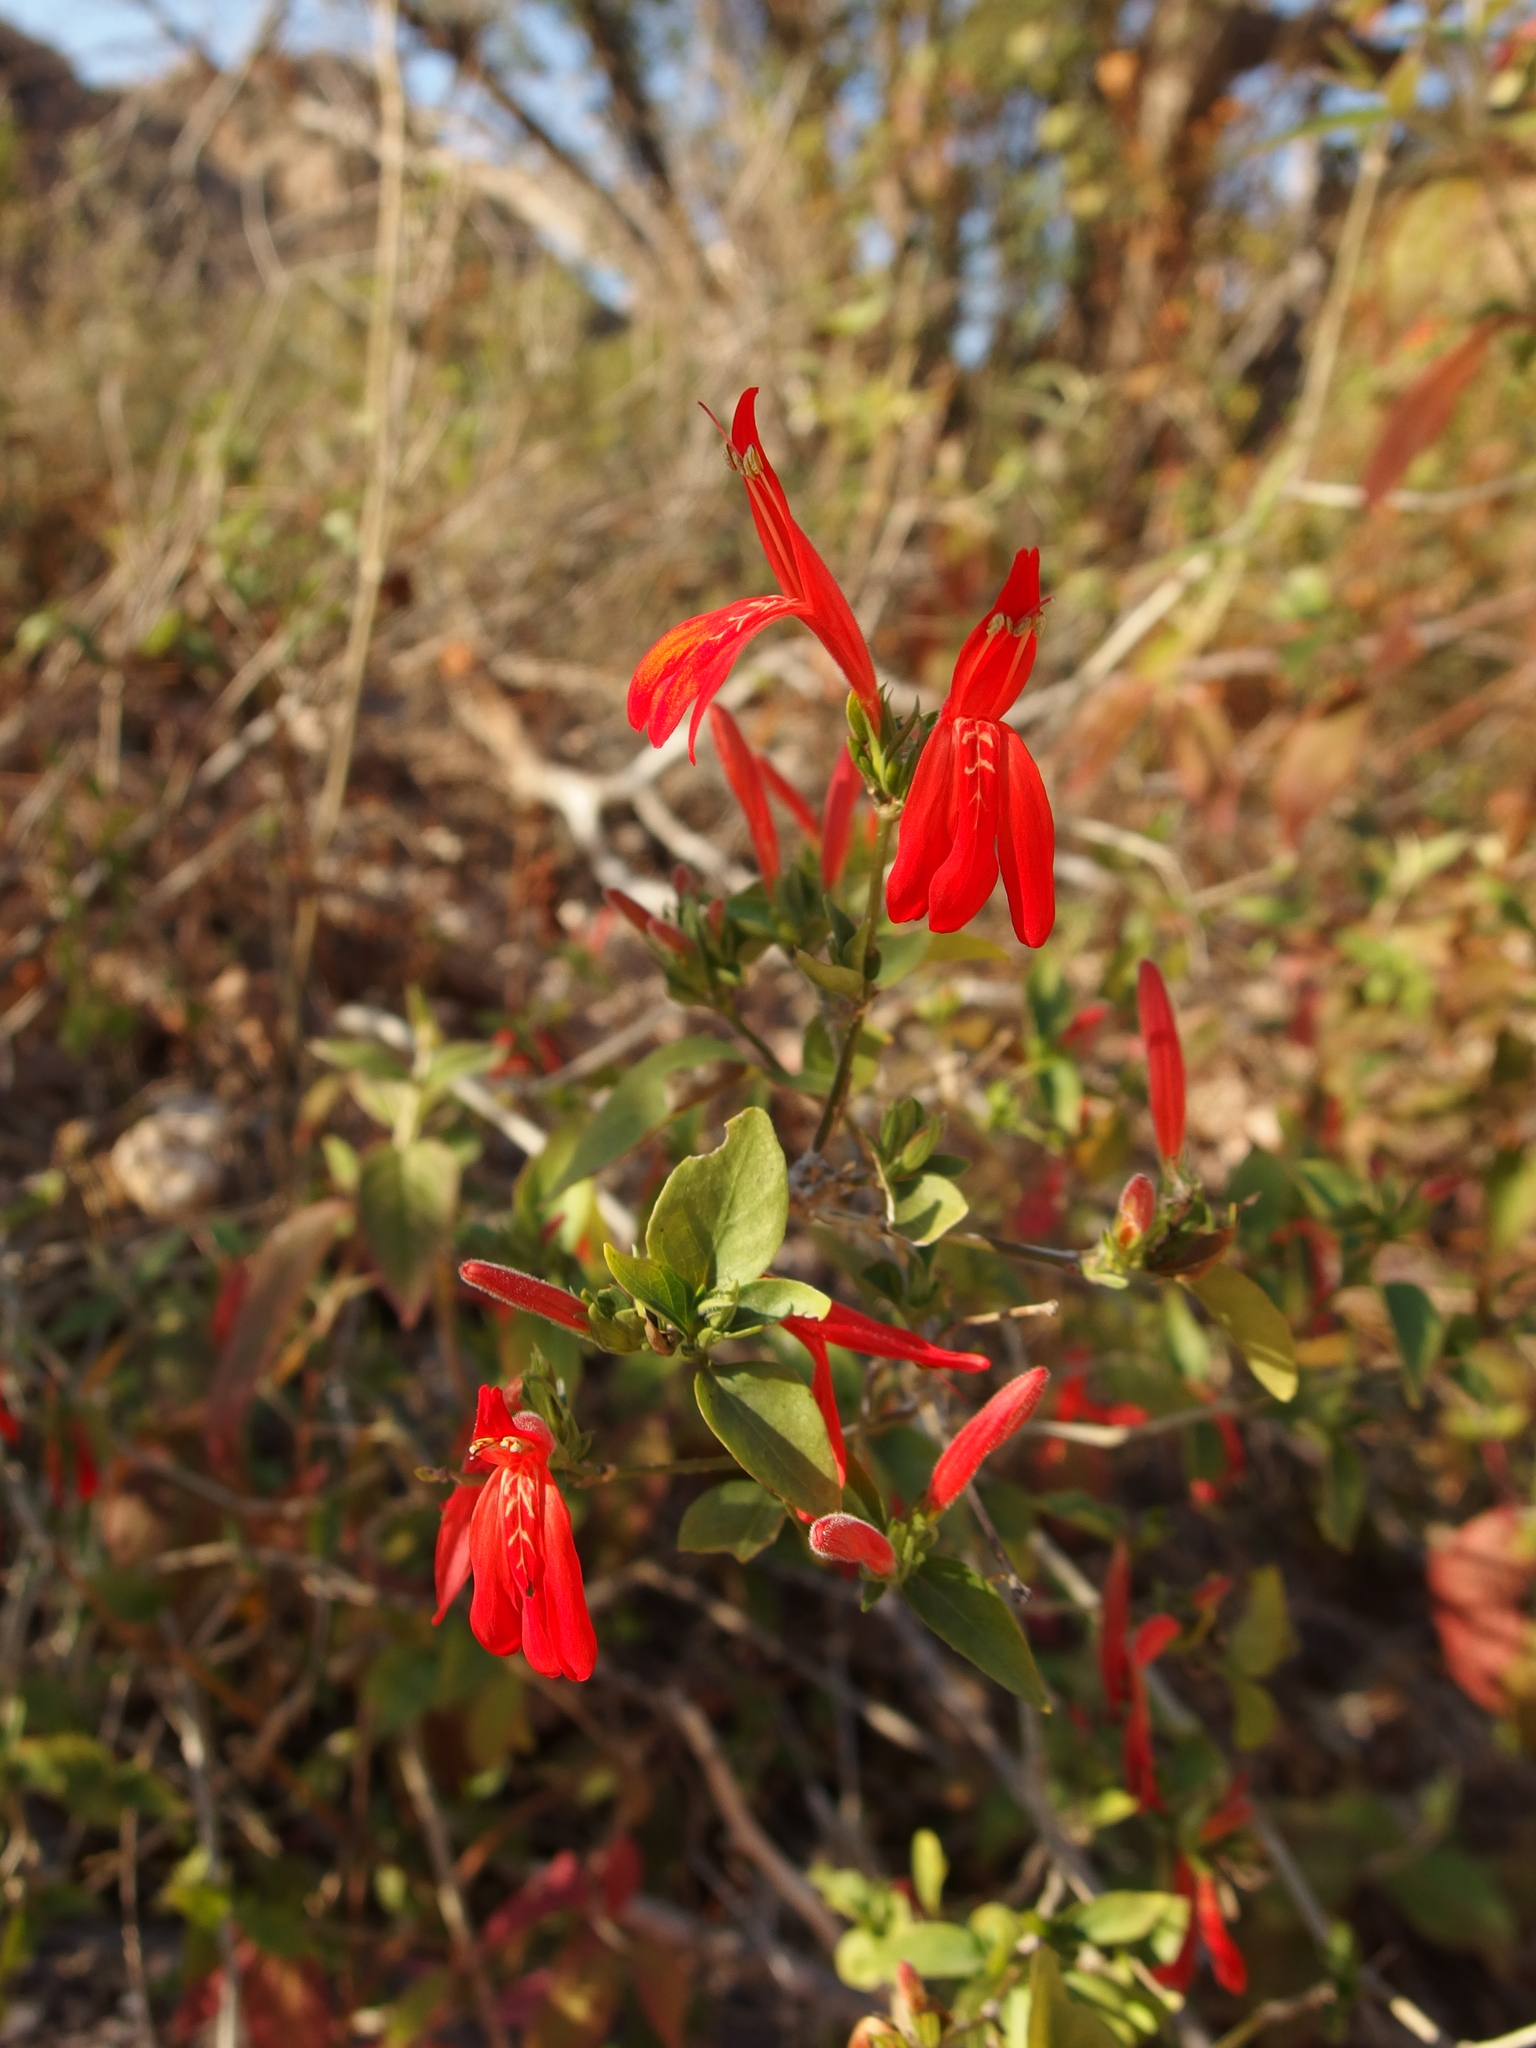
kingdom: Plantae
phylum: Tracheophyta
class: Magnoliopsida
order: Lamiales
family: Acanthaceae
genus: Dianthera
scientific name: Dianthera candicans
